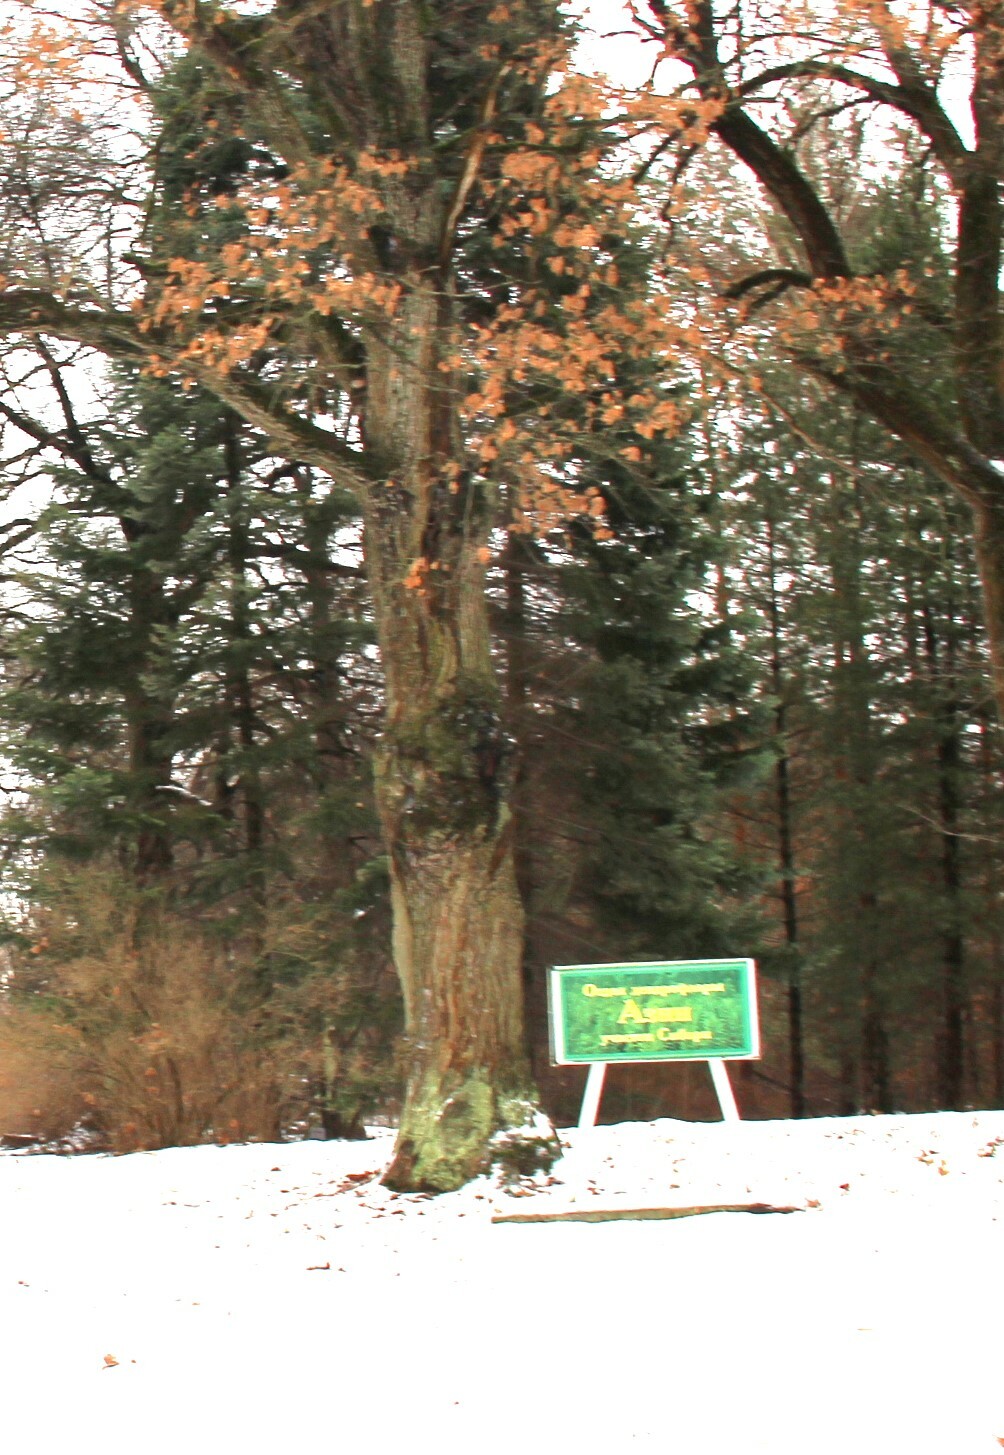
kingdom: Plantae
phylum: Tracheophyta
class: Magnoliopsida
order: Fagales
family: Fagaceae
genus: Quercus
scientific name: Quercus rubra
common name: Red oak
